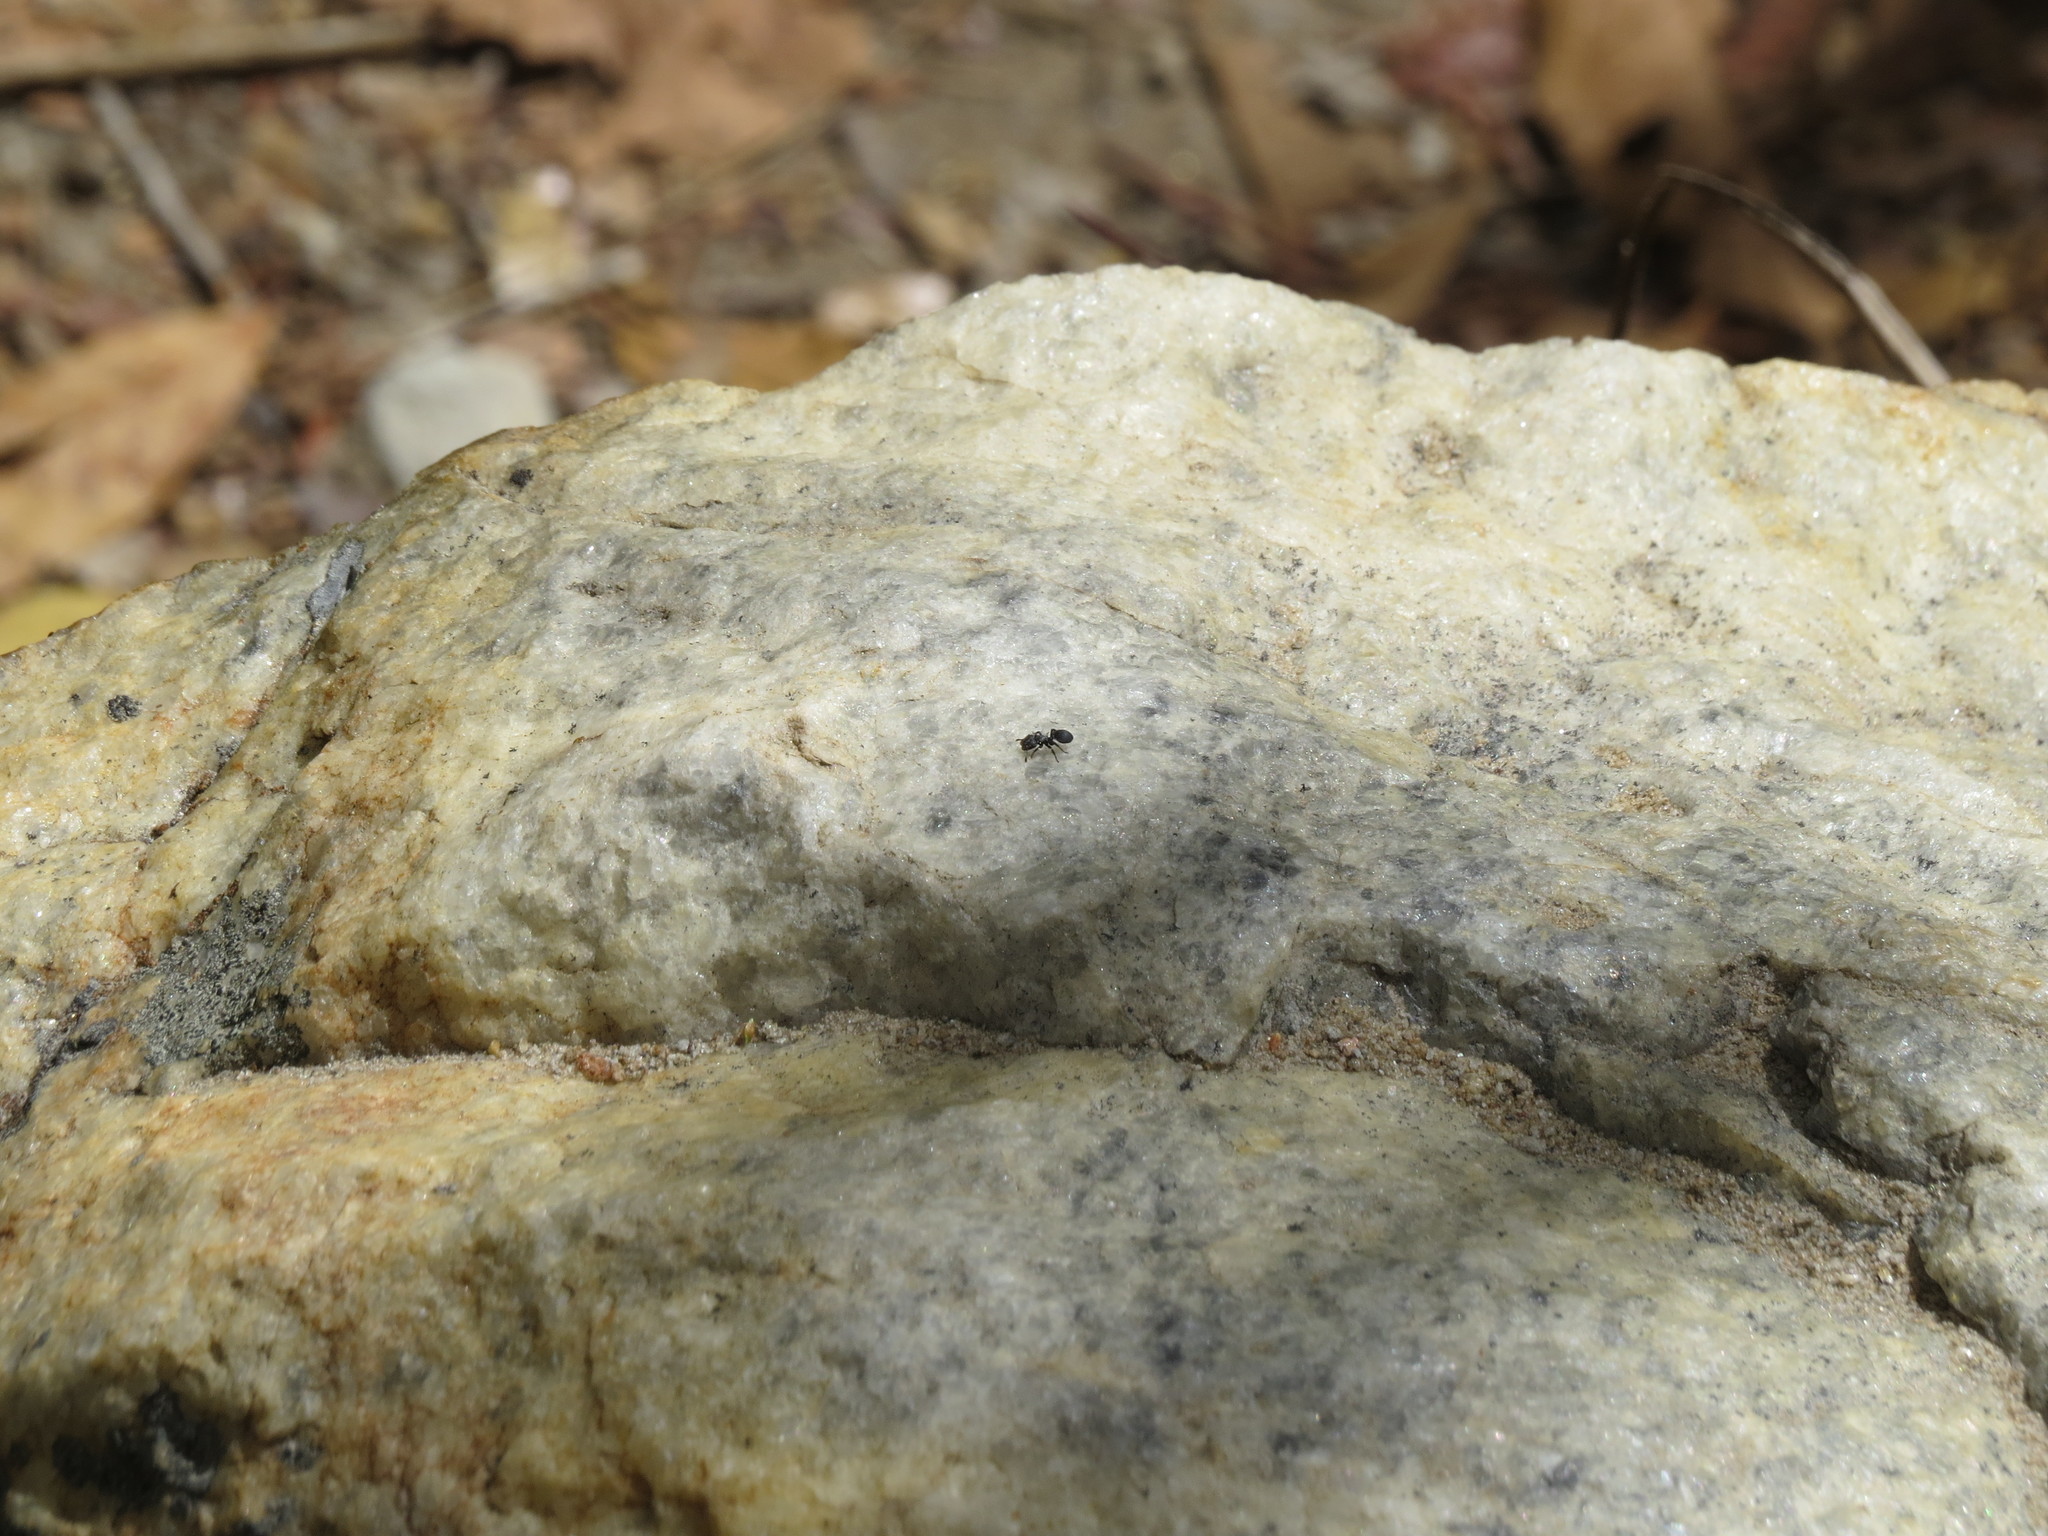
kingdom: Animalia
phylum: Arthropoda
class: Insecta
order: Hymenoptera
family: Formicidae
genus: Cephalotes
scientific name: Cephalotes
